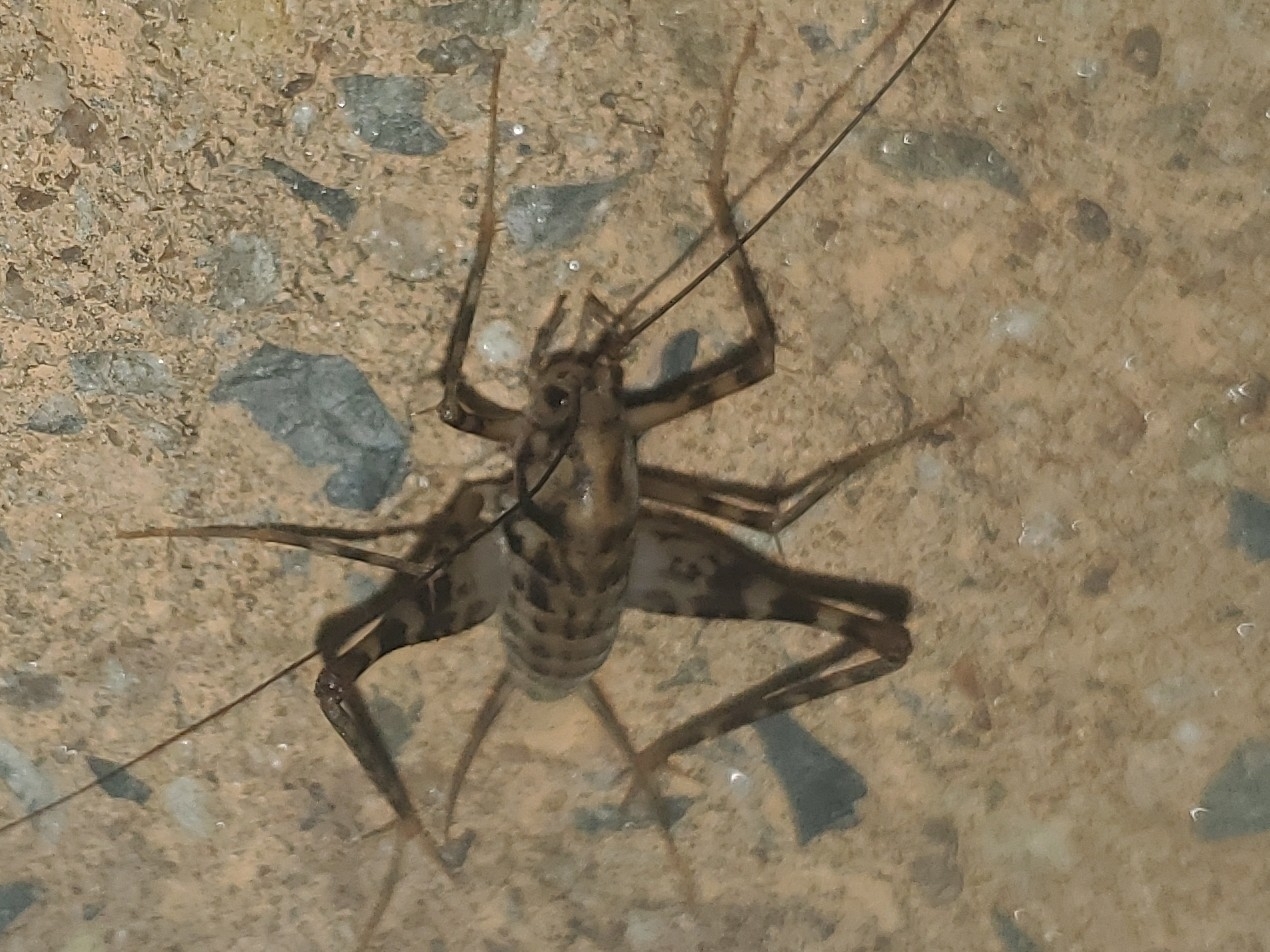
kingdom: Animalia
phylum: Arthropoda
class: Insecta
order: Orthoptera
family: Rhaphidophoridae
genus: Tachycines
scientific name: Tachycines asynamorus
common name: Greenhouse camel cricket
